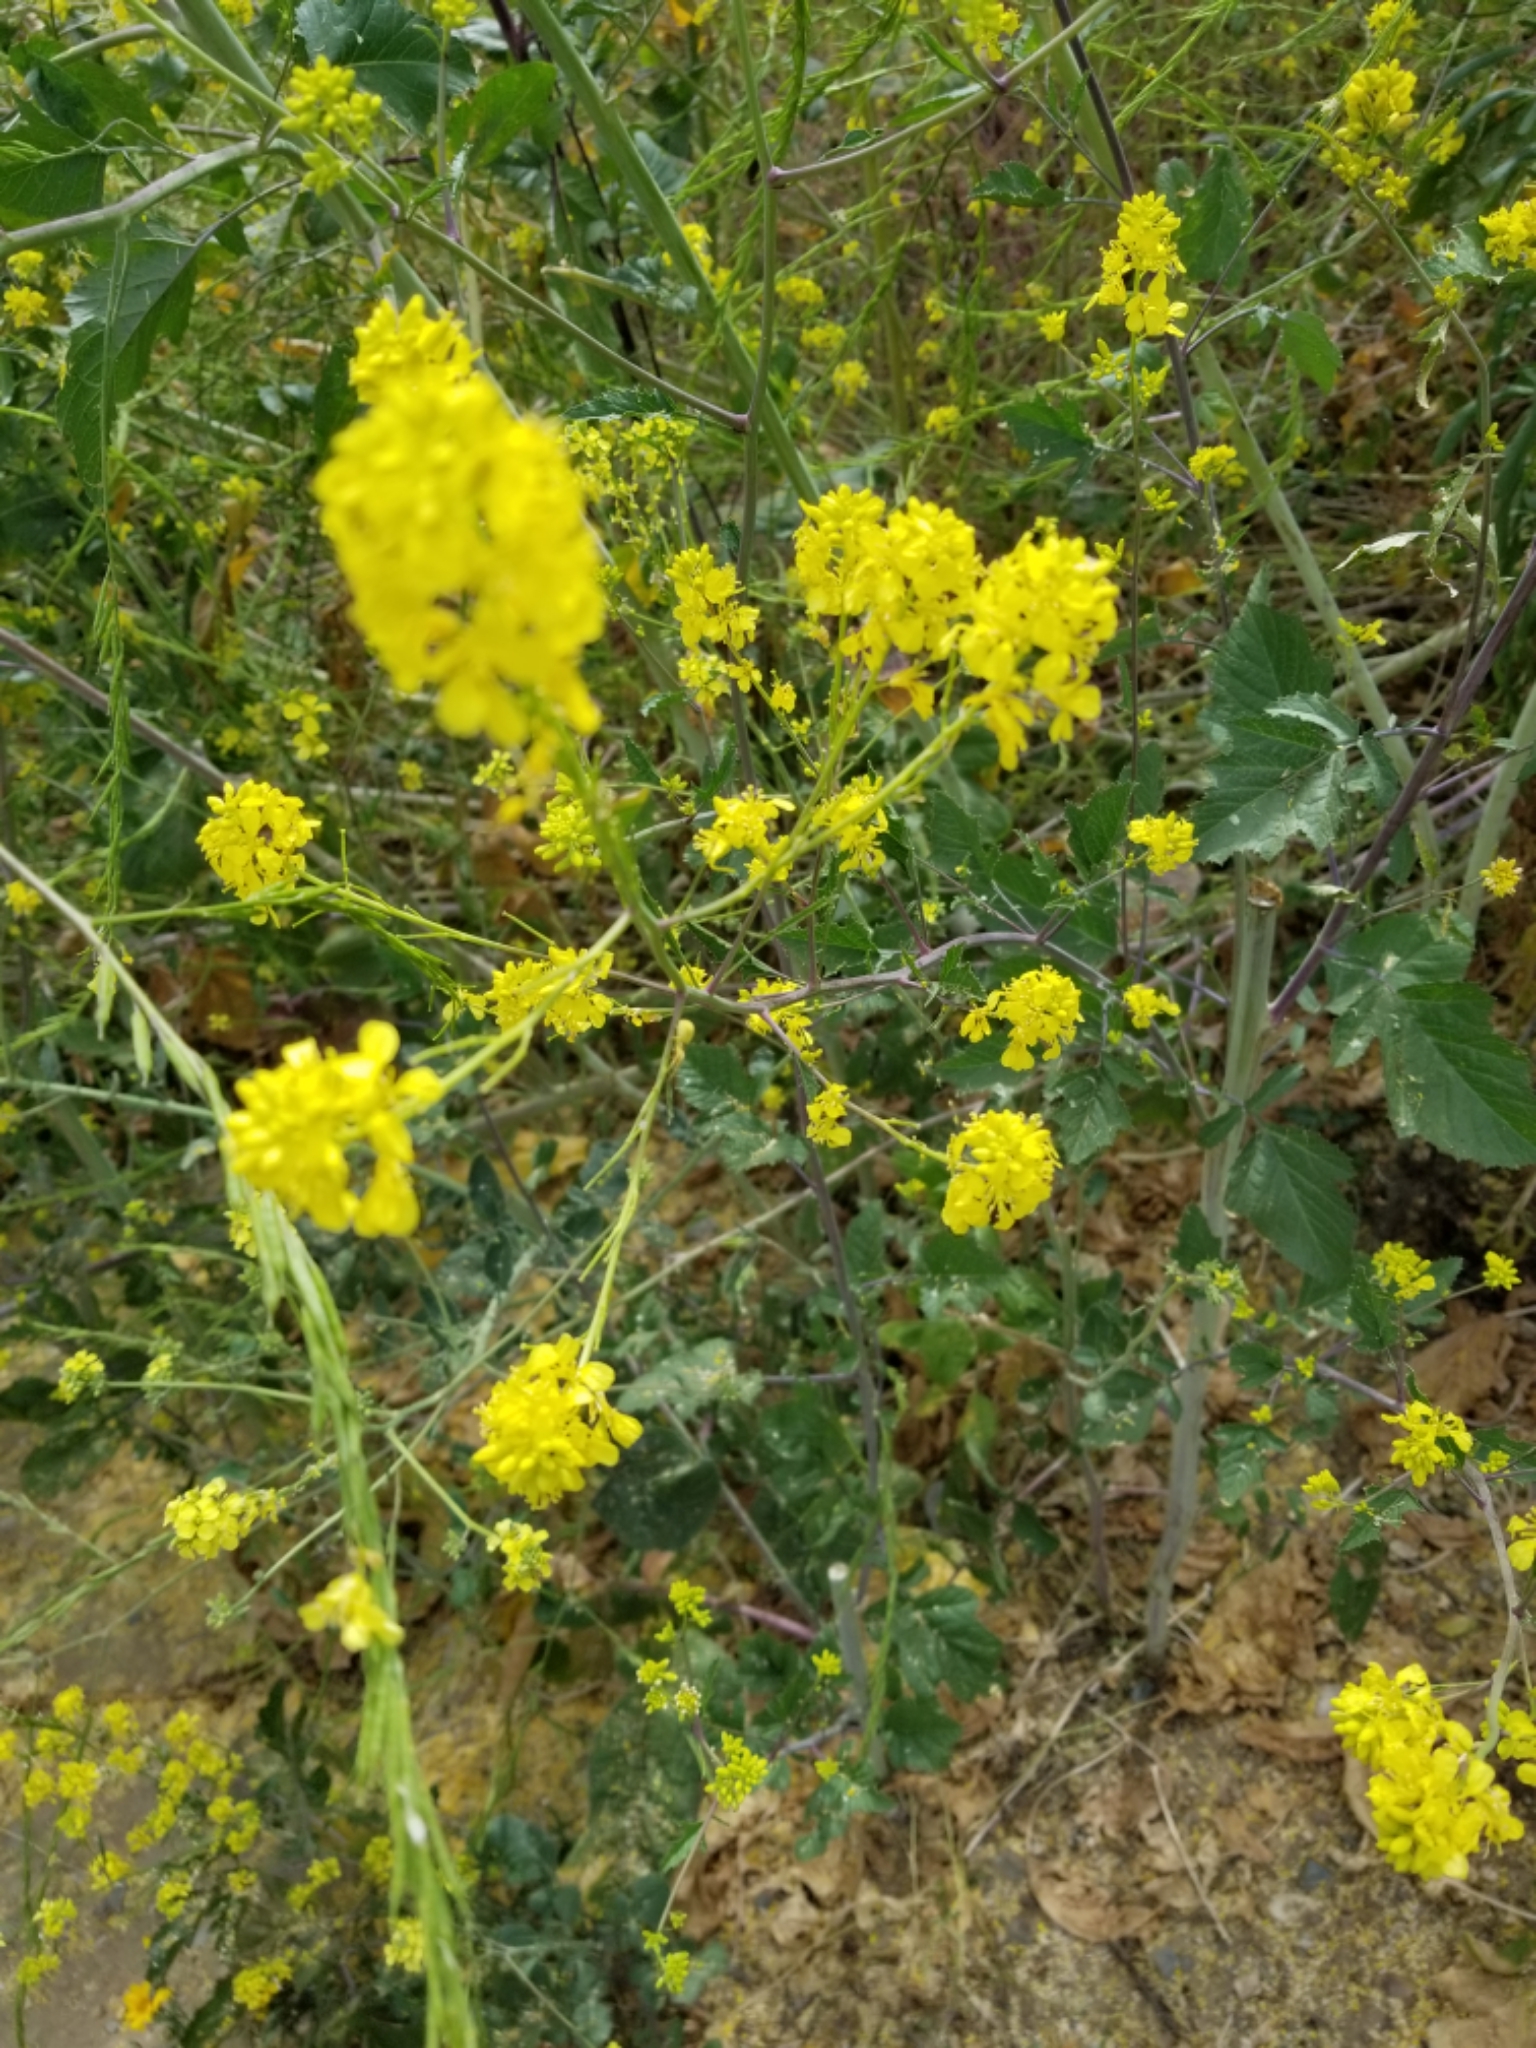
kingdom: Plantae
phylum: Tracheophyta
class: Magnoliopsida
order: Brassicales
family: Brassicaceae
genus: Brassica
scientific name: Brassica nigra
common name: Black mustard
